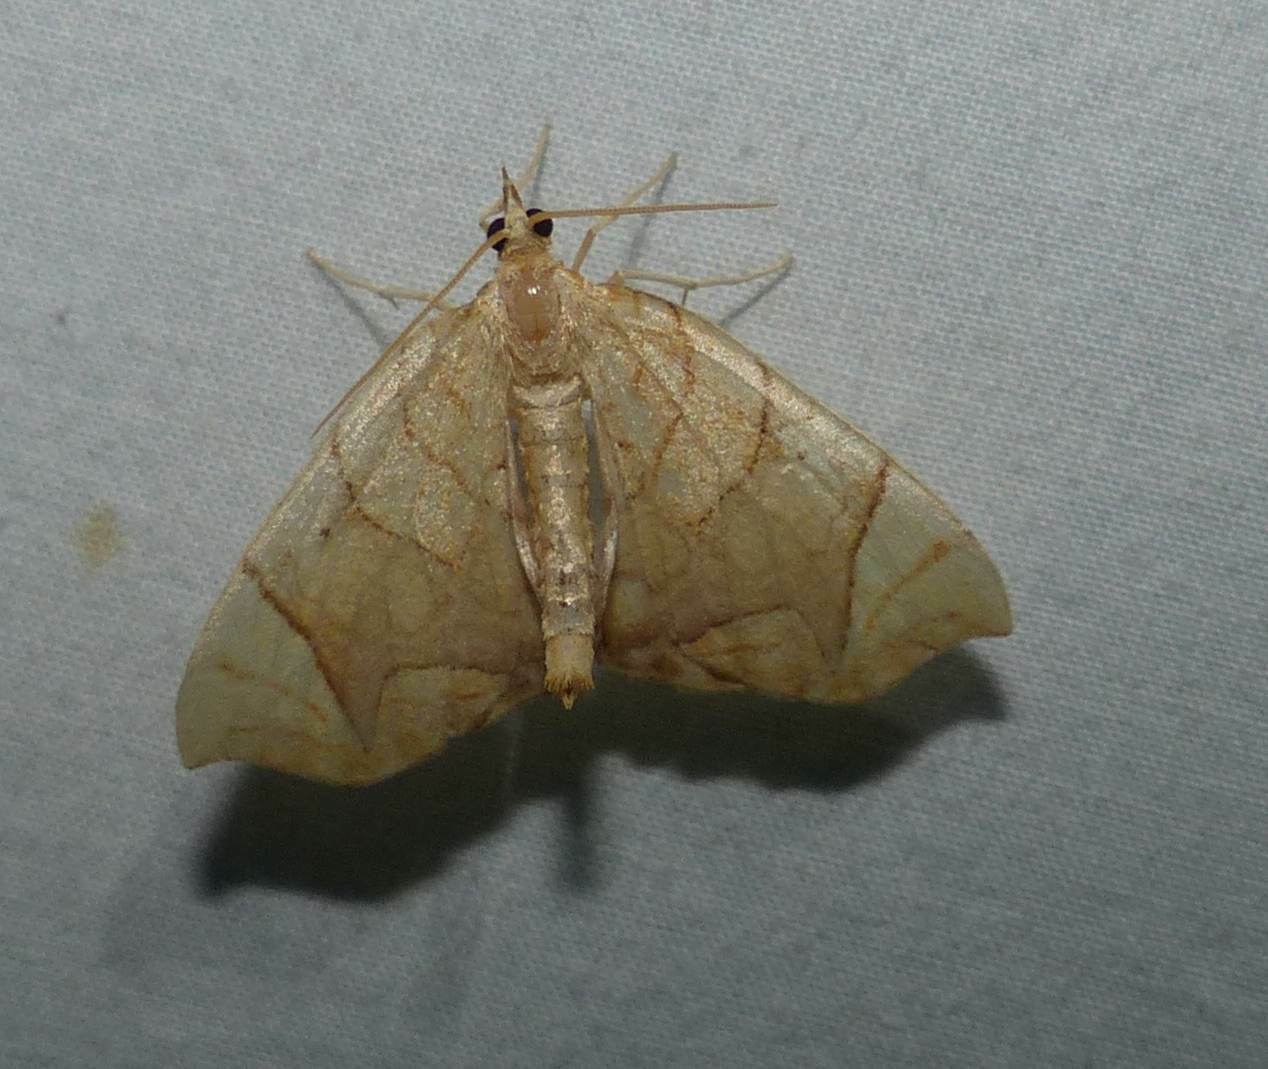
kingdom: Animalia
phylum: Arthropoda
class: Insecta
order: Lepidoptera
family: Geometridae
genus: Eulithis
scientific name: Eulithis
